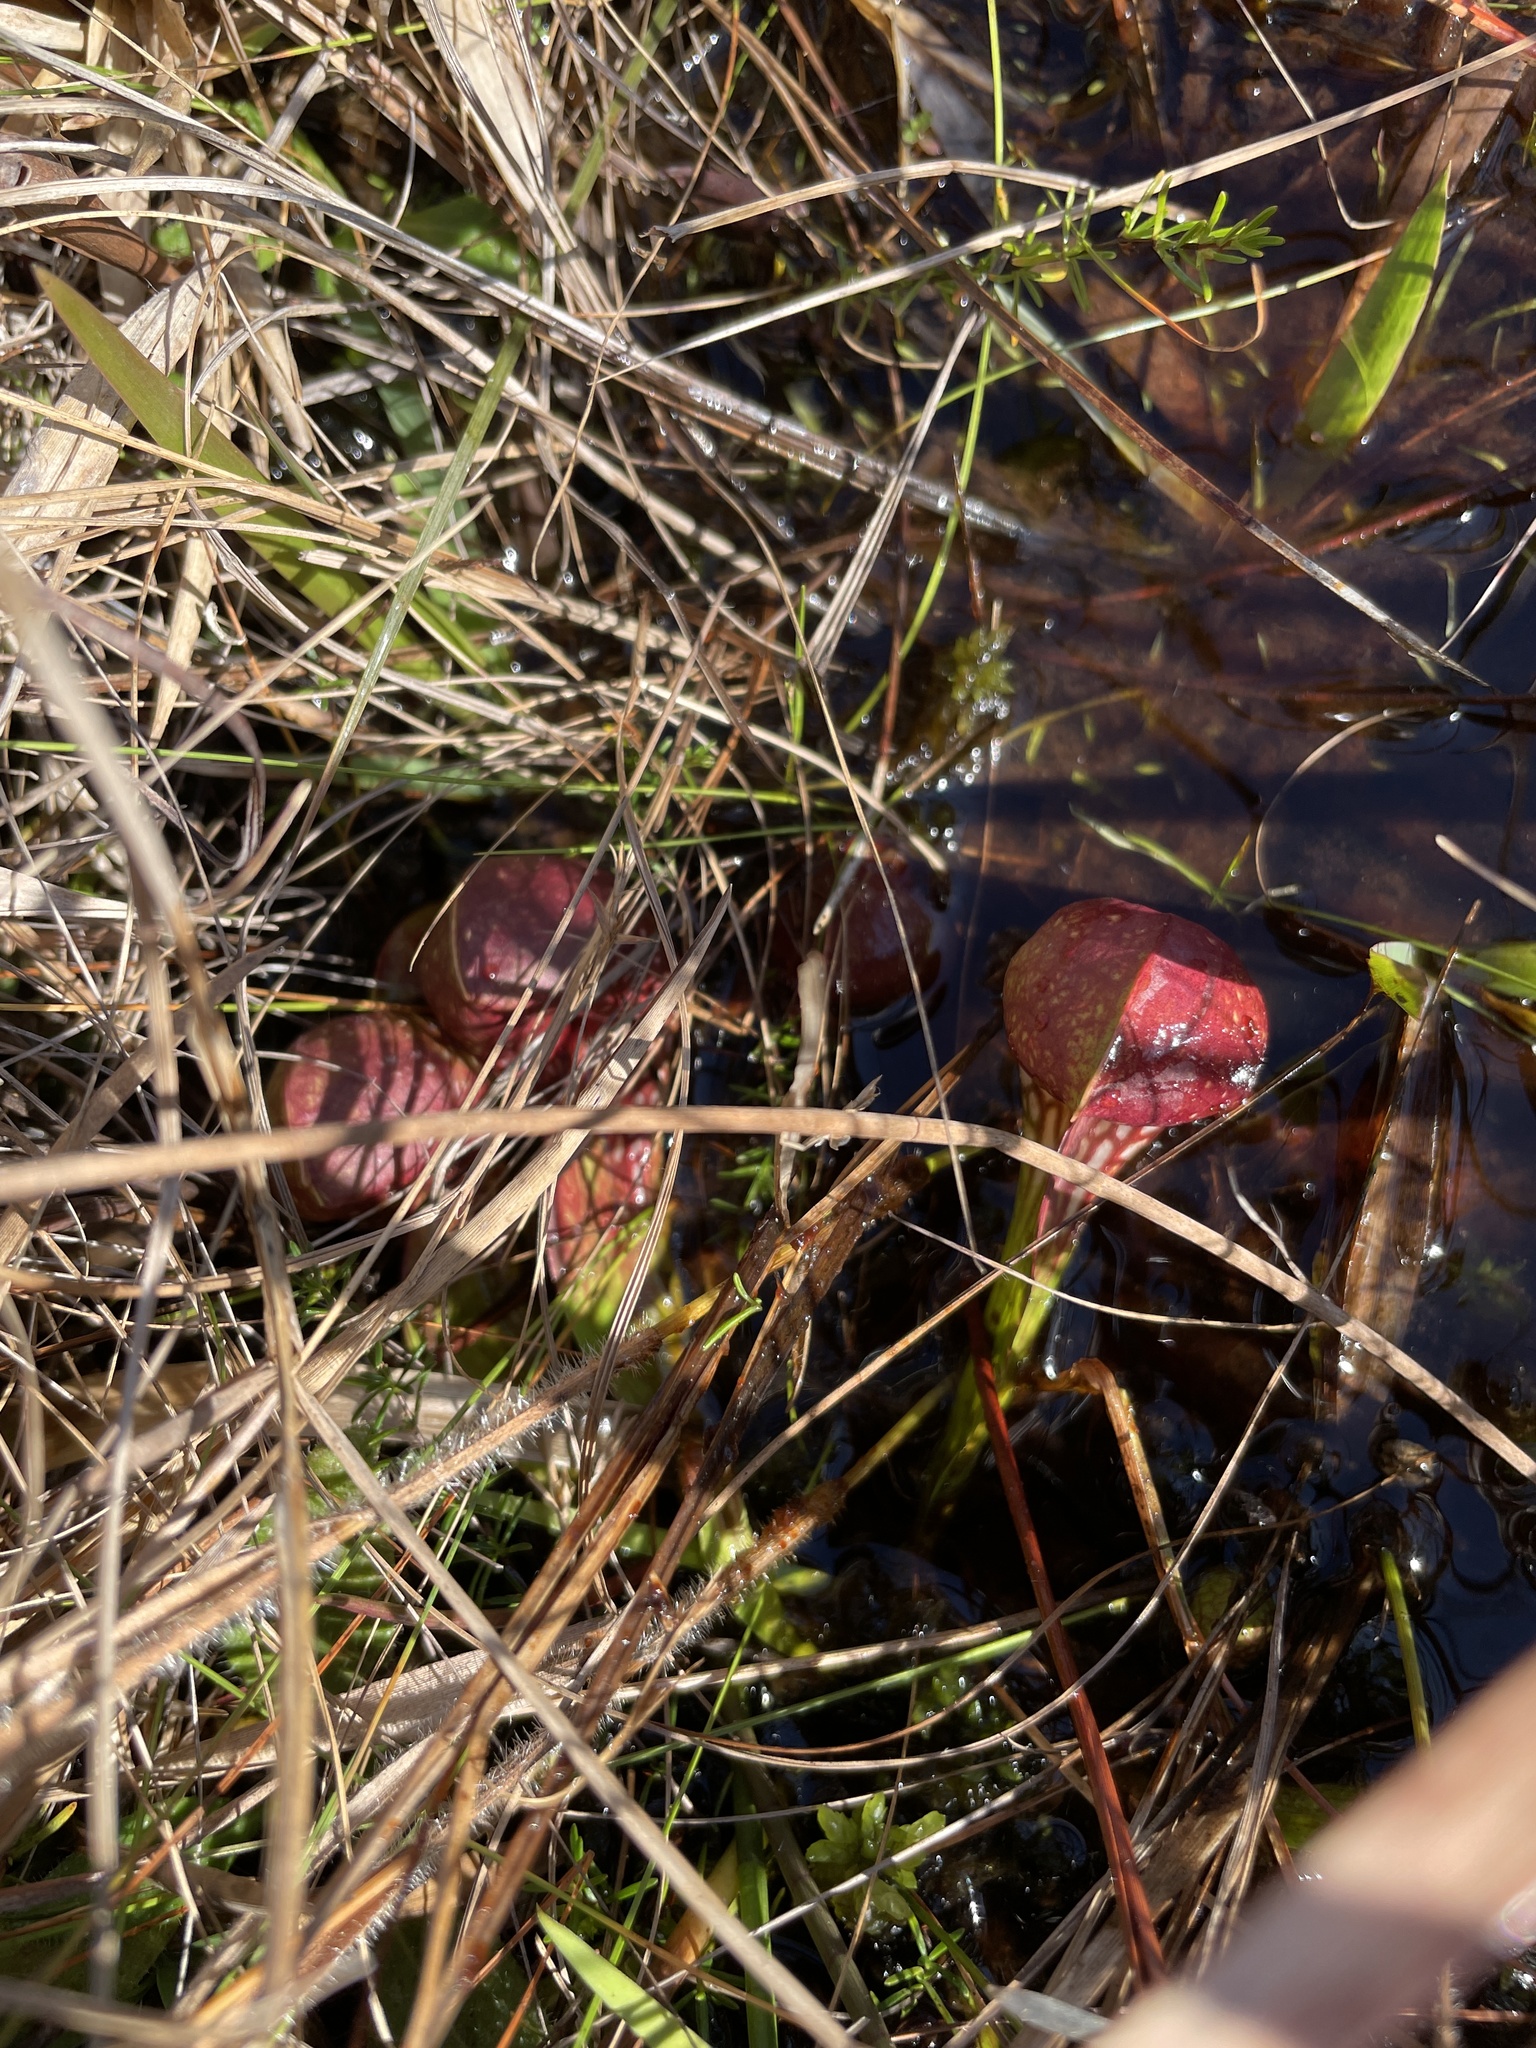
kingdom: Plantae
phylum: Tracheophyta
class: Magnoliopsida
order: Ericales
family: Sarraceniaceae
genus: Sarracenia
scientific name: Sarracenia psittacina
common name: Parrot pitcherplant
